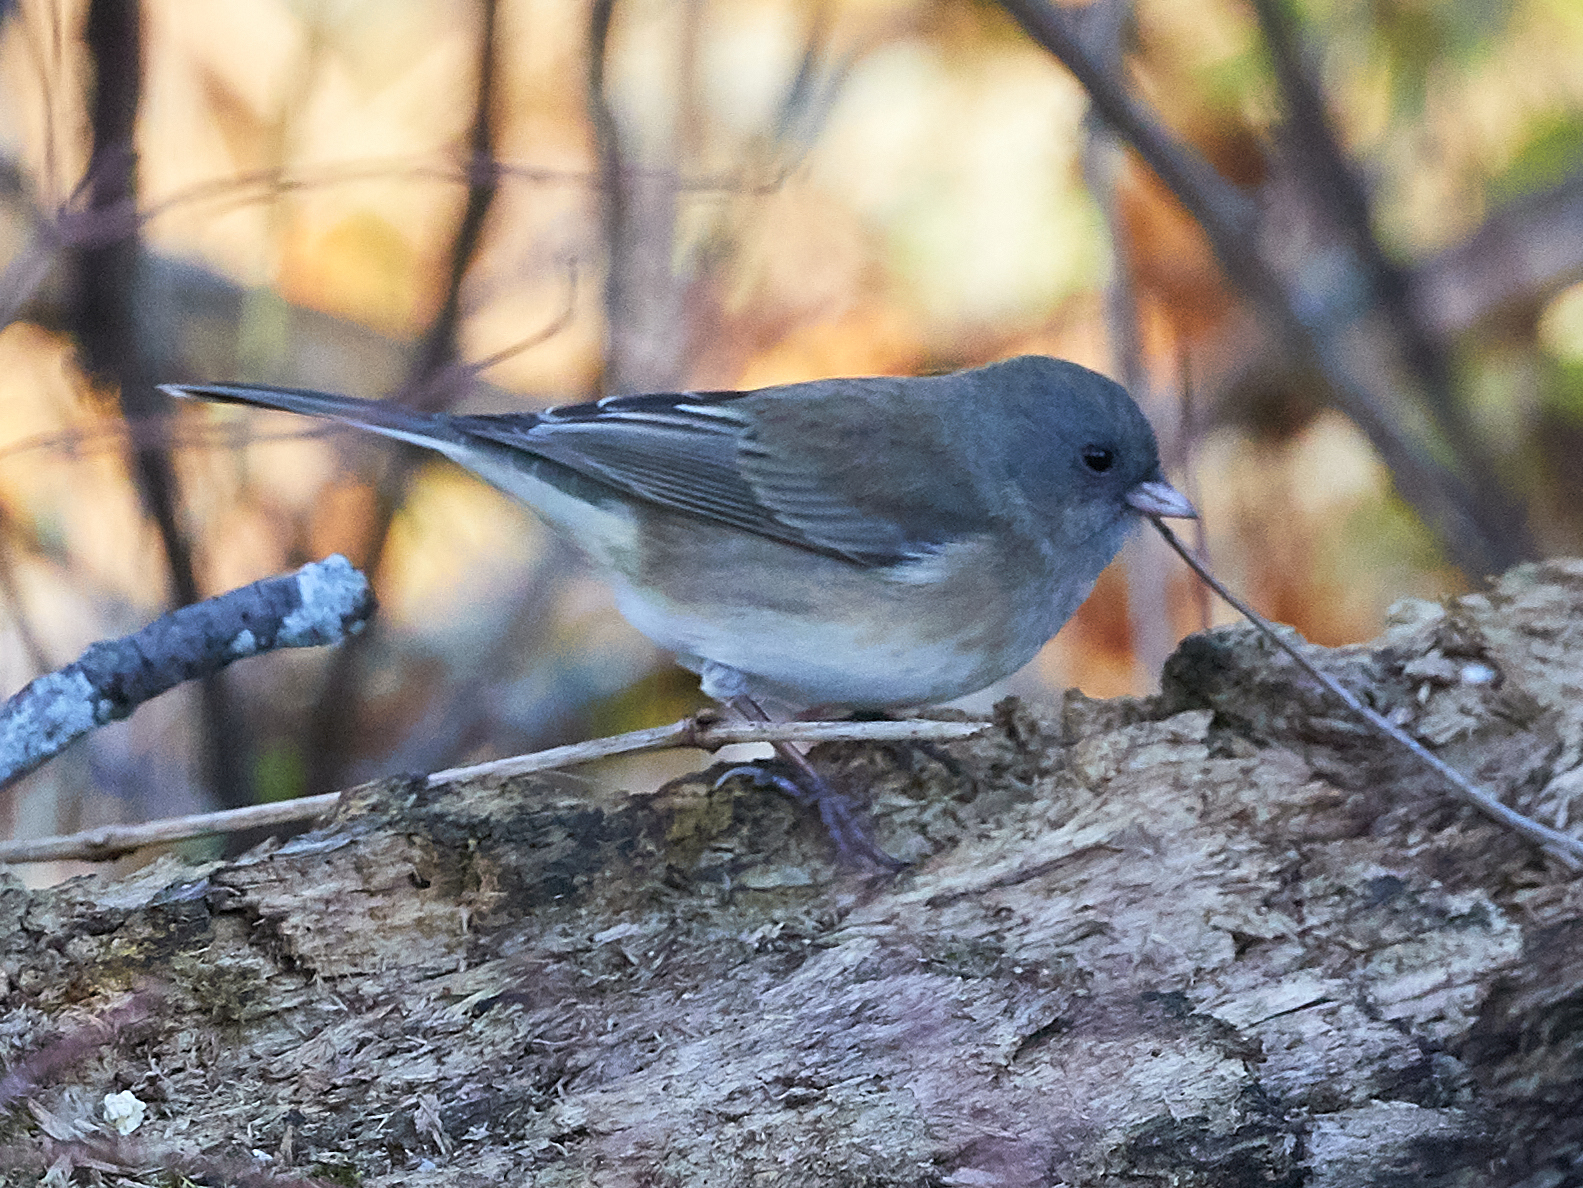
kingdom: Animalia
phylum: Chordata
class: Aves
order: Passeriformes
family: Passerellidae
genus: Junco
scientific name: Junco hyemalis
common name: Dark-eyed junco
